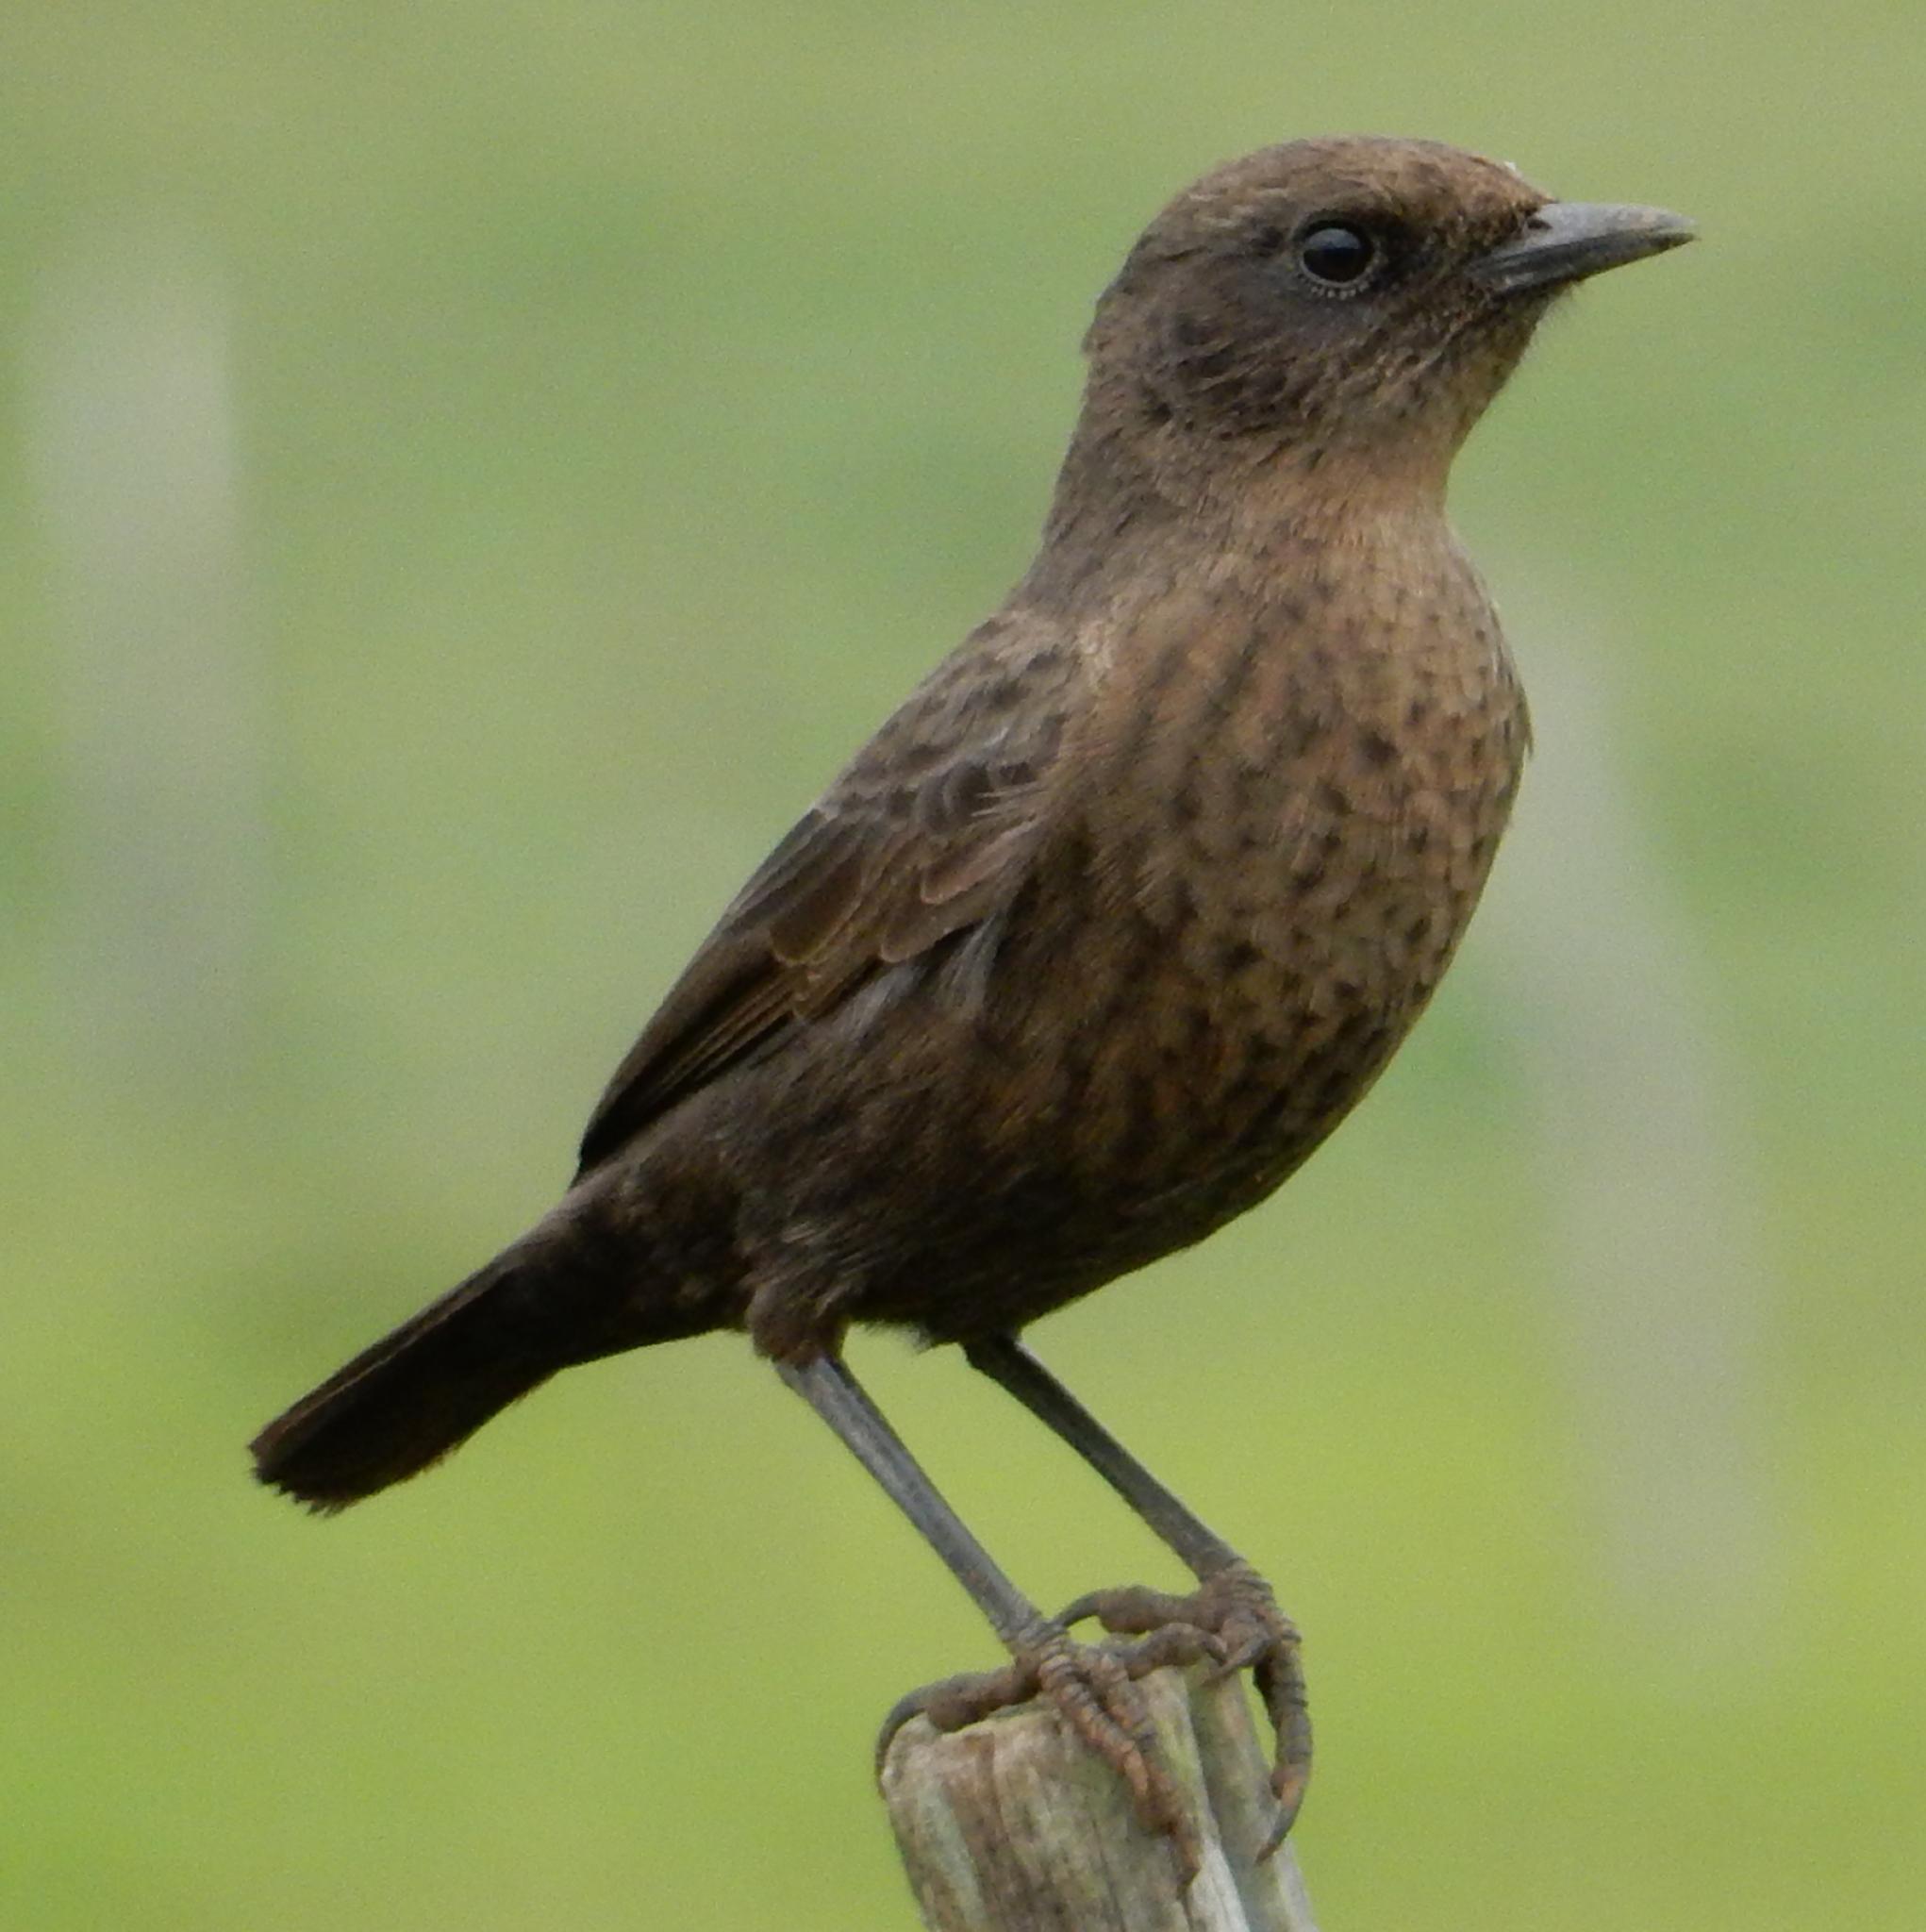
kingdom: Animalia
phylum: Chordata
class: Aves
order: Passeriformes
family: Muscicapidae
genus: Myrmecocichla
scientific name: Myrmecocichla formicivora
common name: Ant-eating chat
